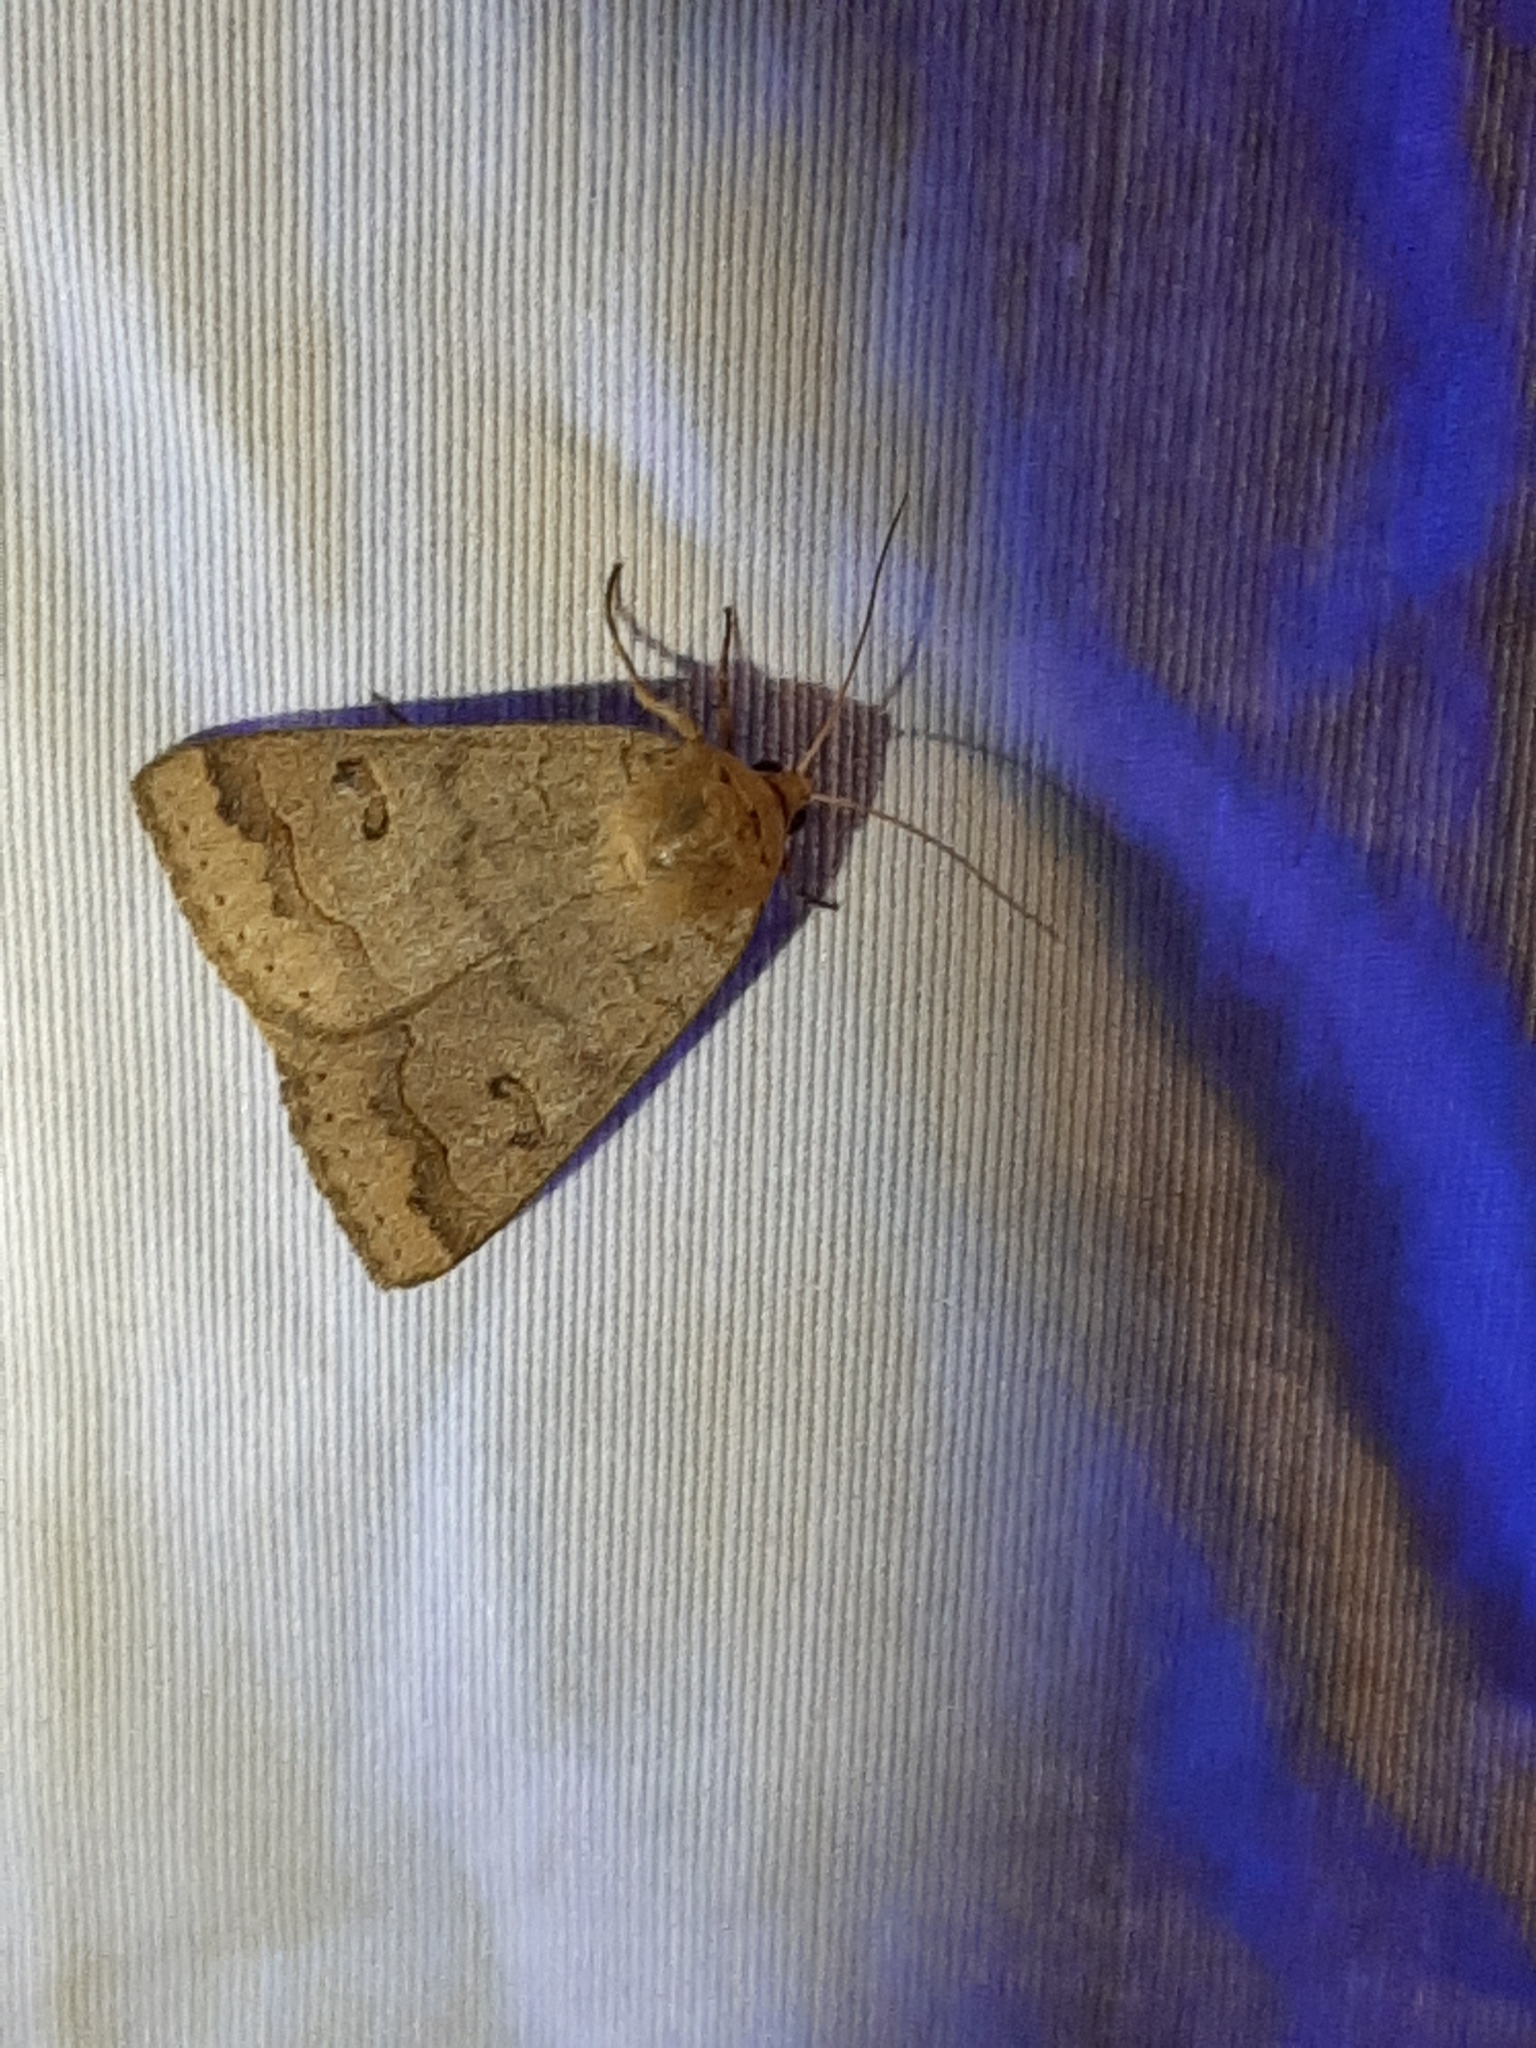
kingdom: Animalia
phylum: Arthropoda
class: Insecta
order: Lepidoptera
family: Erebidae
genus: Phoberia
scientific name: Phoberia atomaris
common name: Common oak moth
